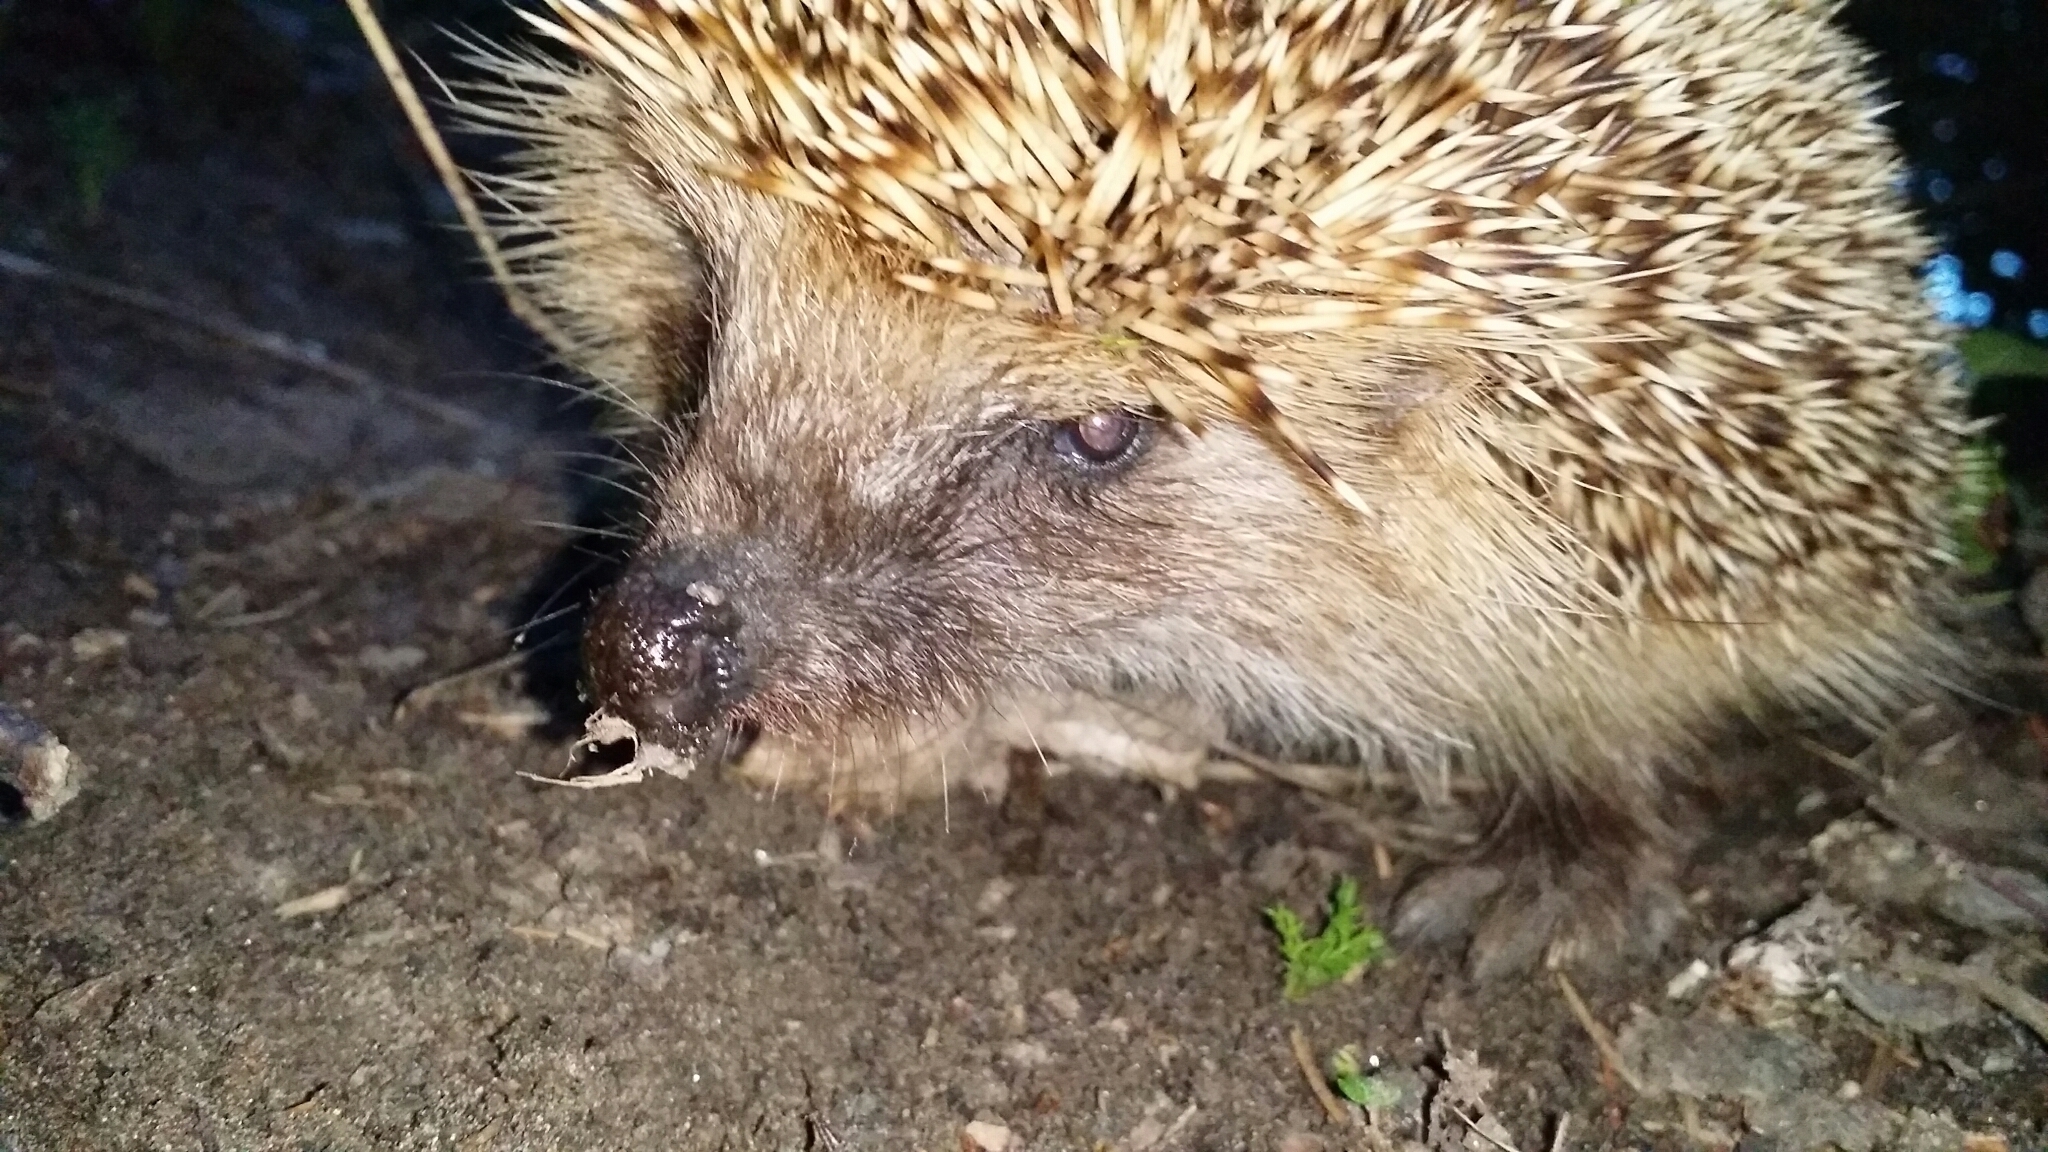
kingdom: Animalia
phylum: Chordata
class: Mammalia
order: Erinaceomorpha
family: Erinaceidae
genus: Erinaceus
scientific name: Erinaceus europaeus
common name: West european hedgehog
